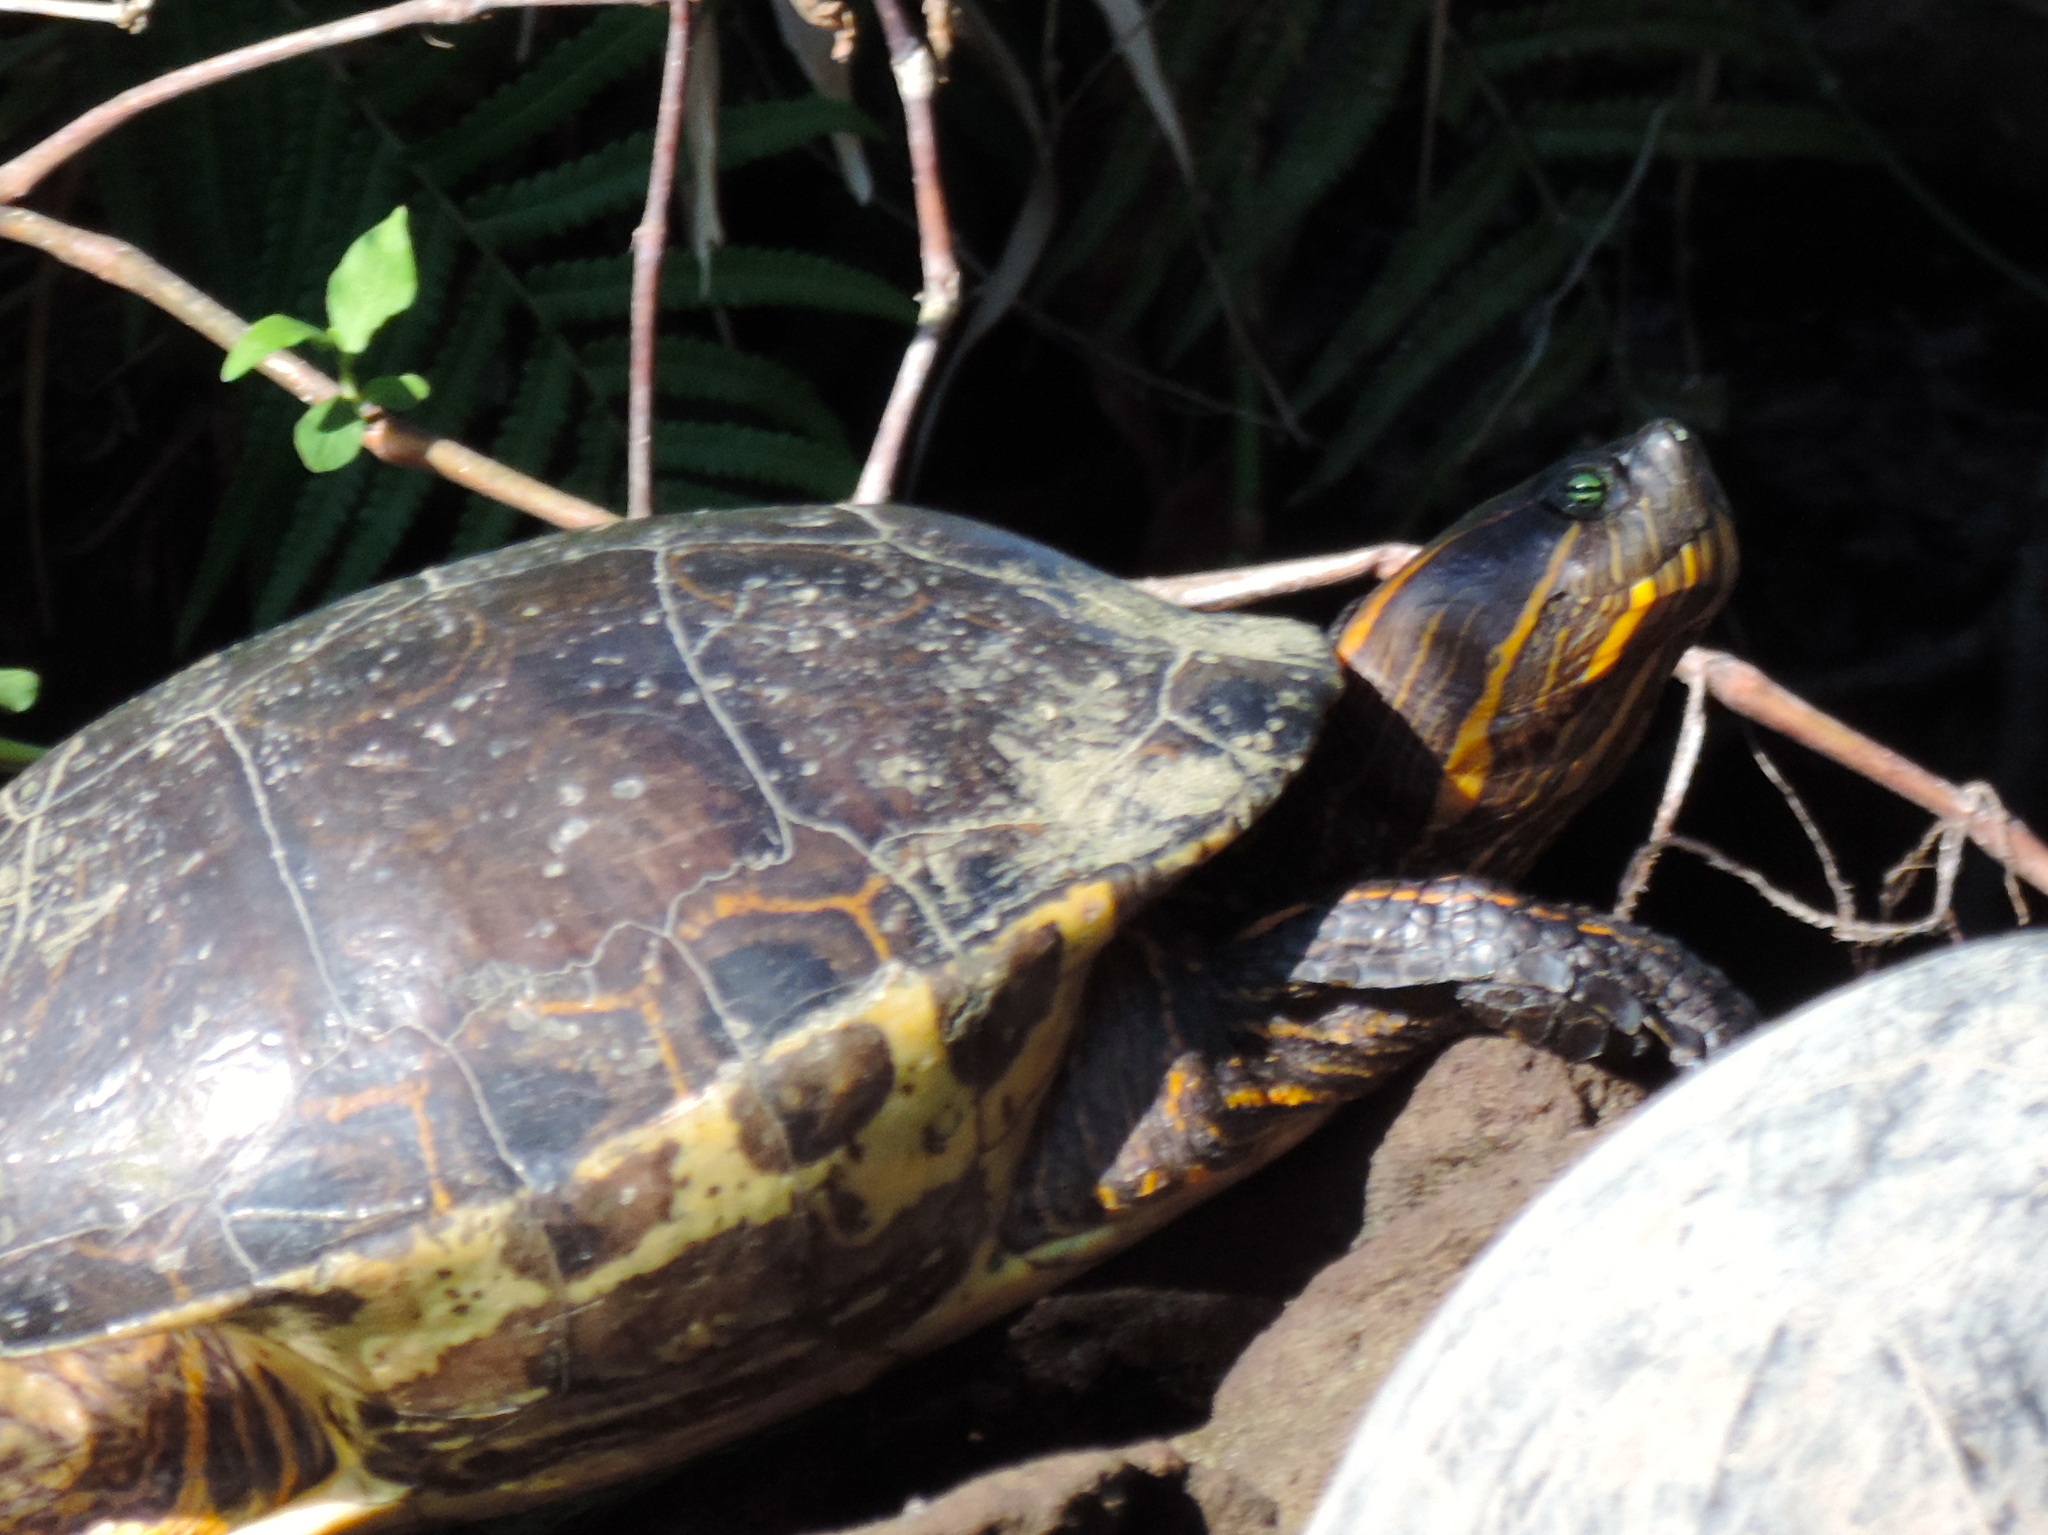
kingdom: Animalia
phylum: Chordata
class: Testudines
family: Emydidae
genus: Trachemys
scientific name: Trachemys ornata
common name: Ornate slider
